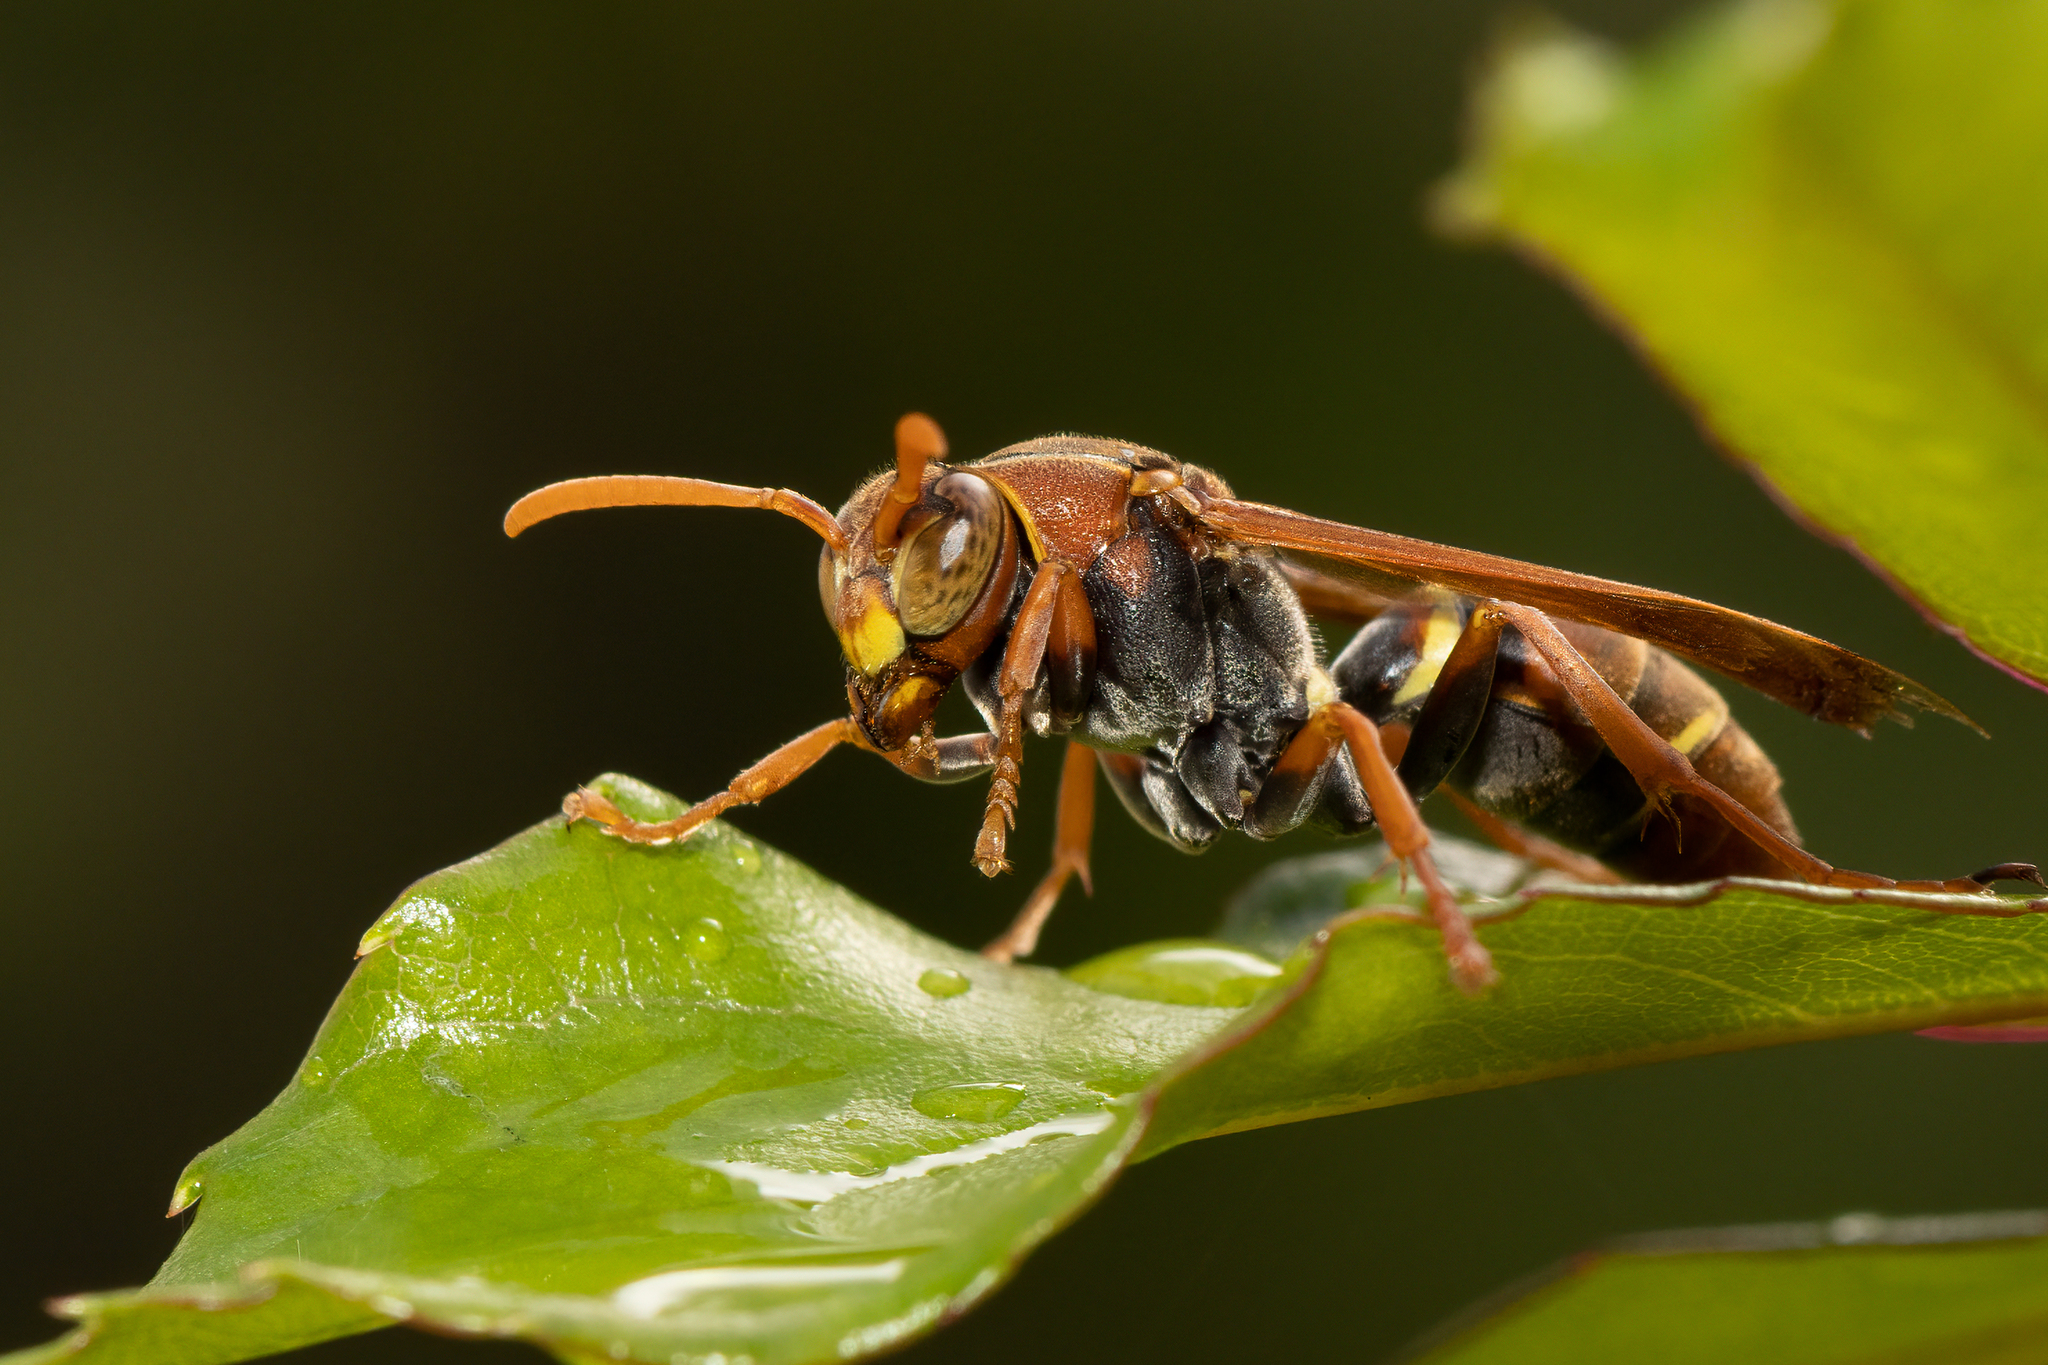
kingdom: Animalia
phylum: Arthropoda
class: Insecta
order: Hymenoptera
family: Eumenidae
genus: Polistes
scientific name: Polistes humilis
